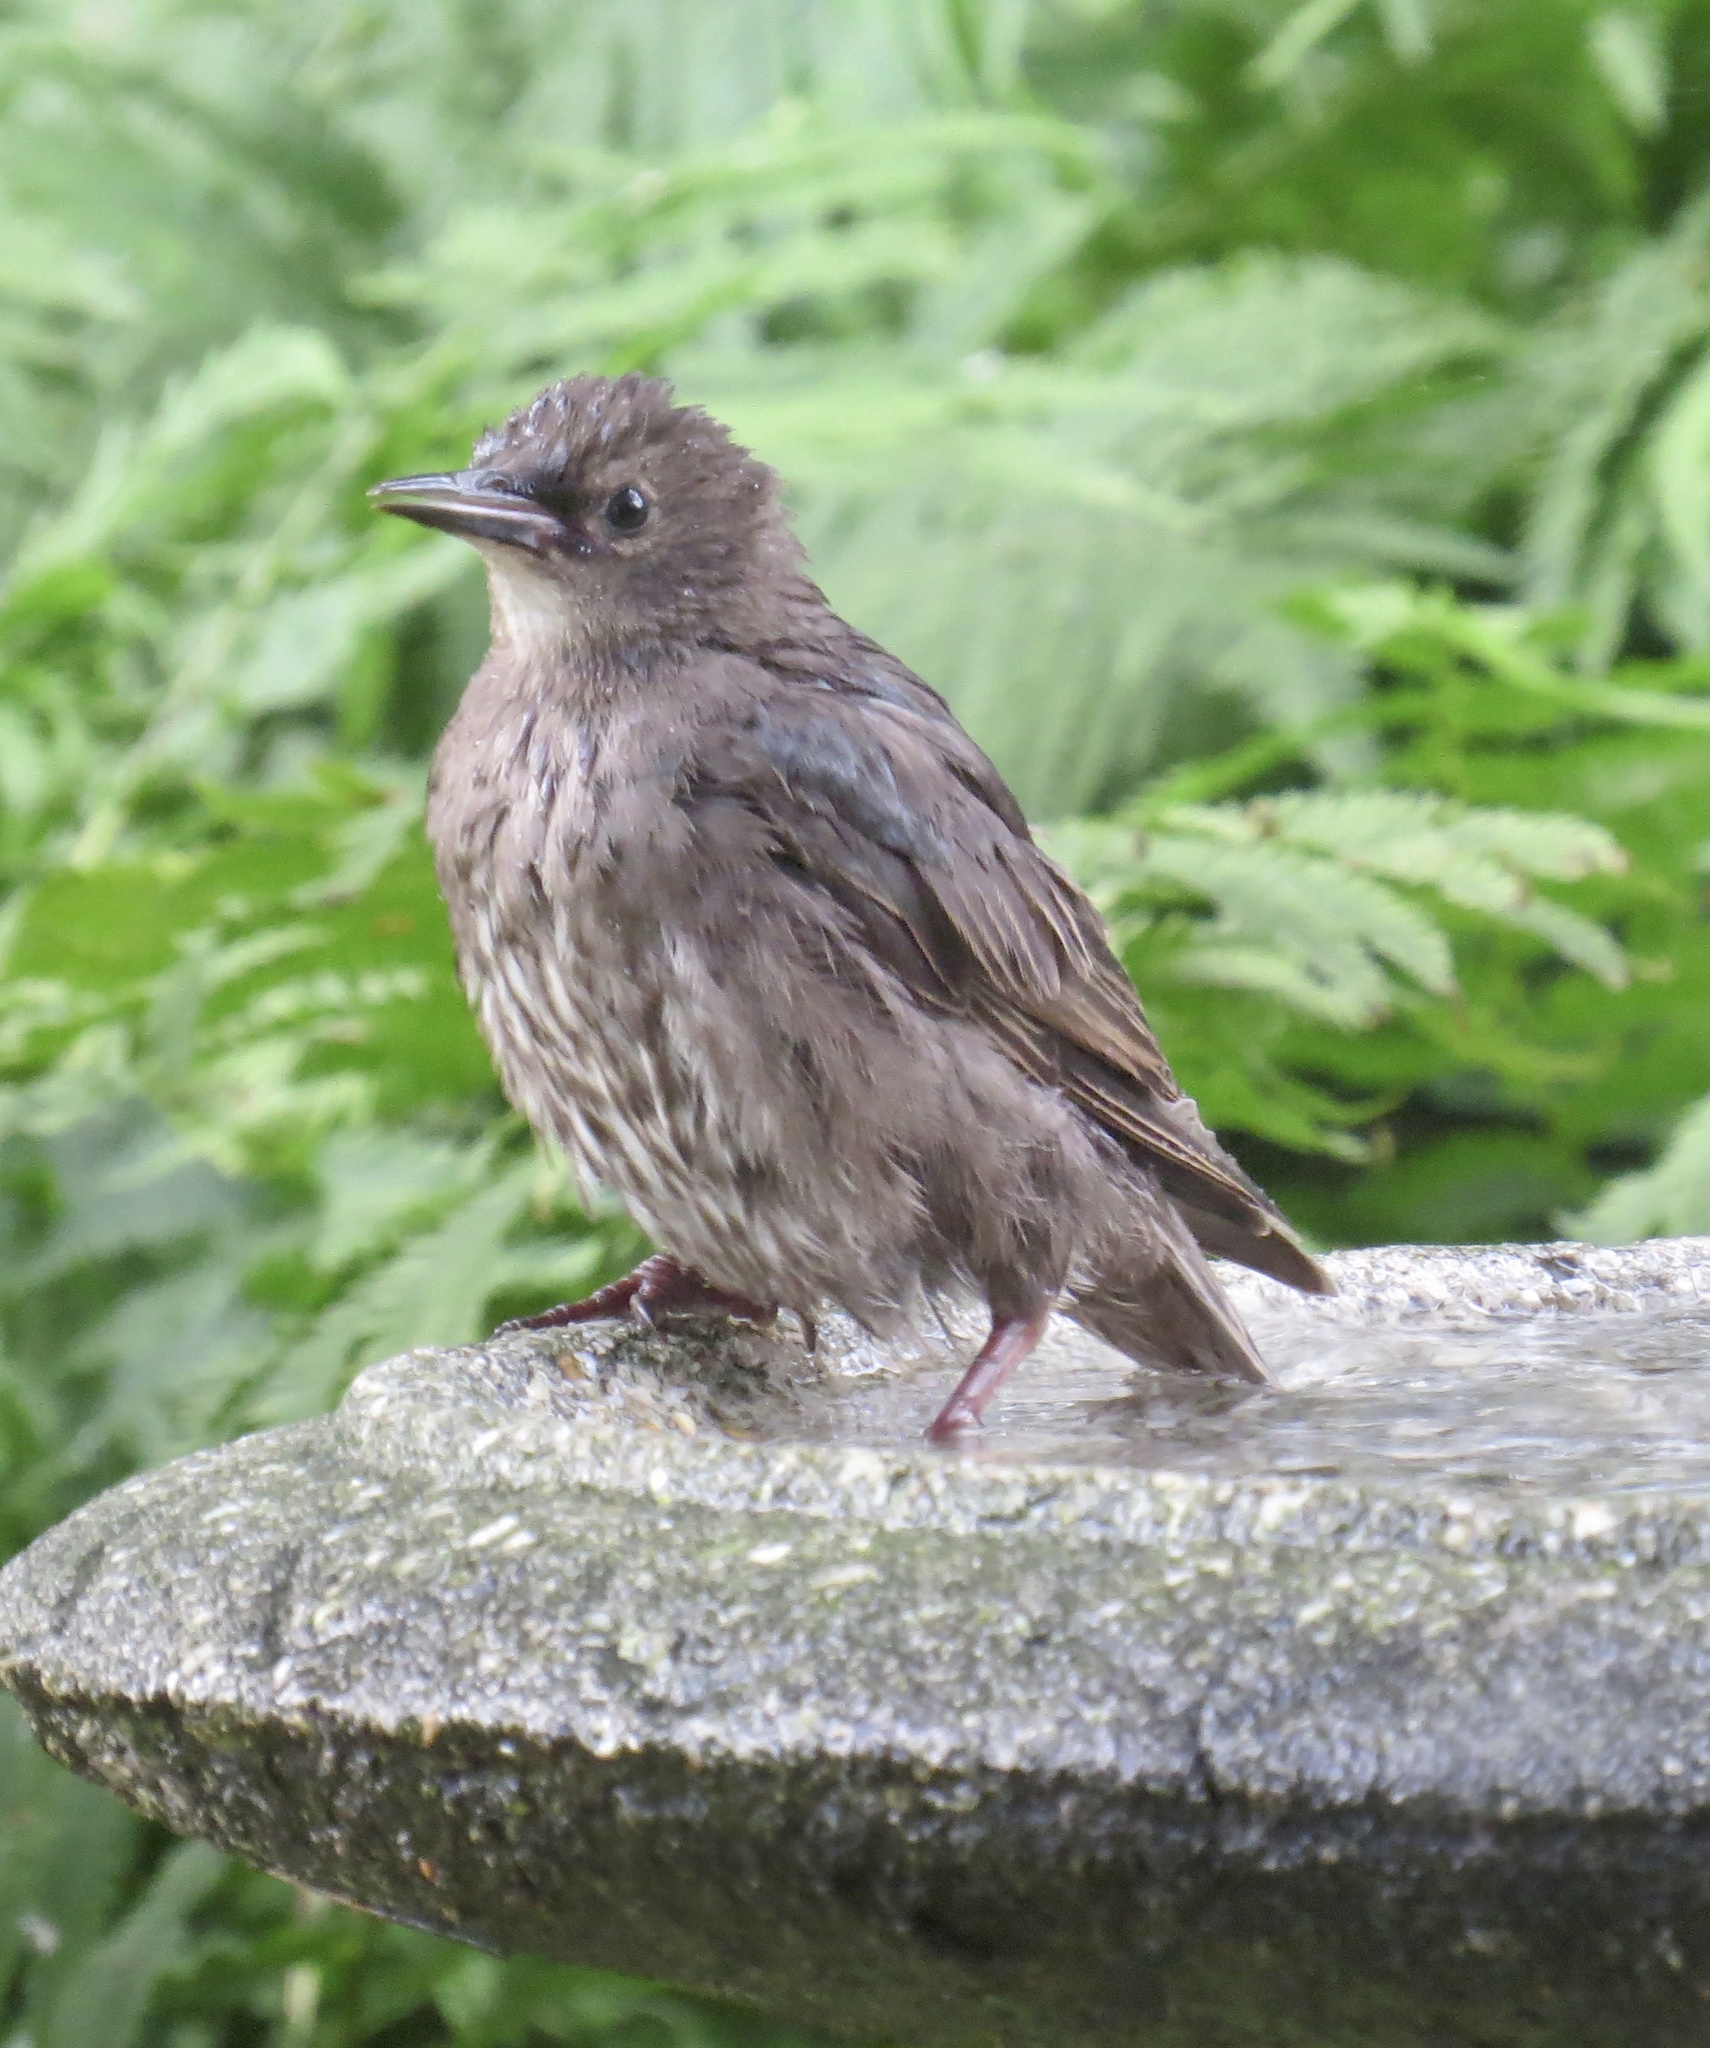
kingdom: Animalia
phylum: Chordata
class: Aves
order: Passeriformes
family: Sturnidae
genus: Sturnus
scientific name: Sturnus vulgaris
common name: Common starling
